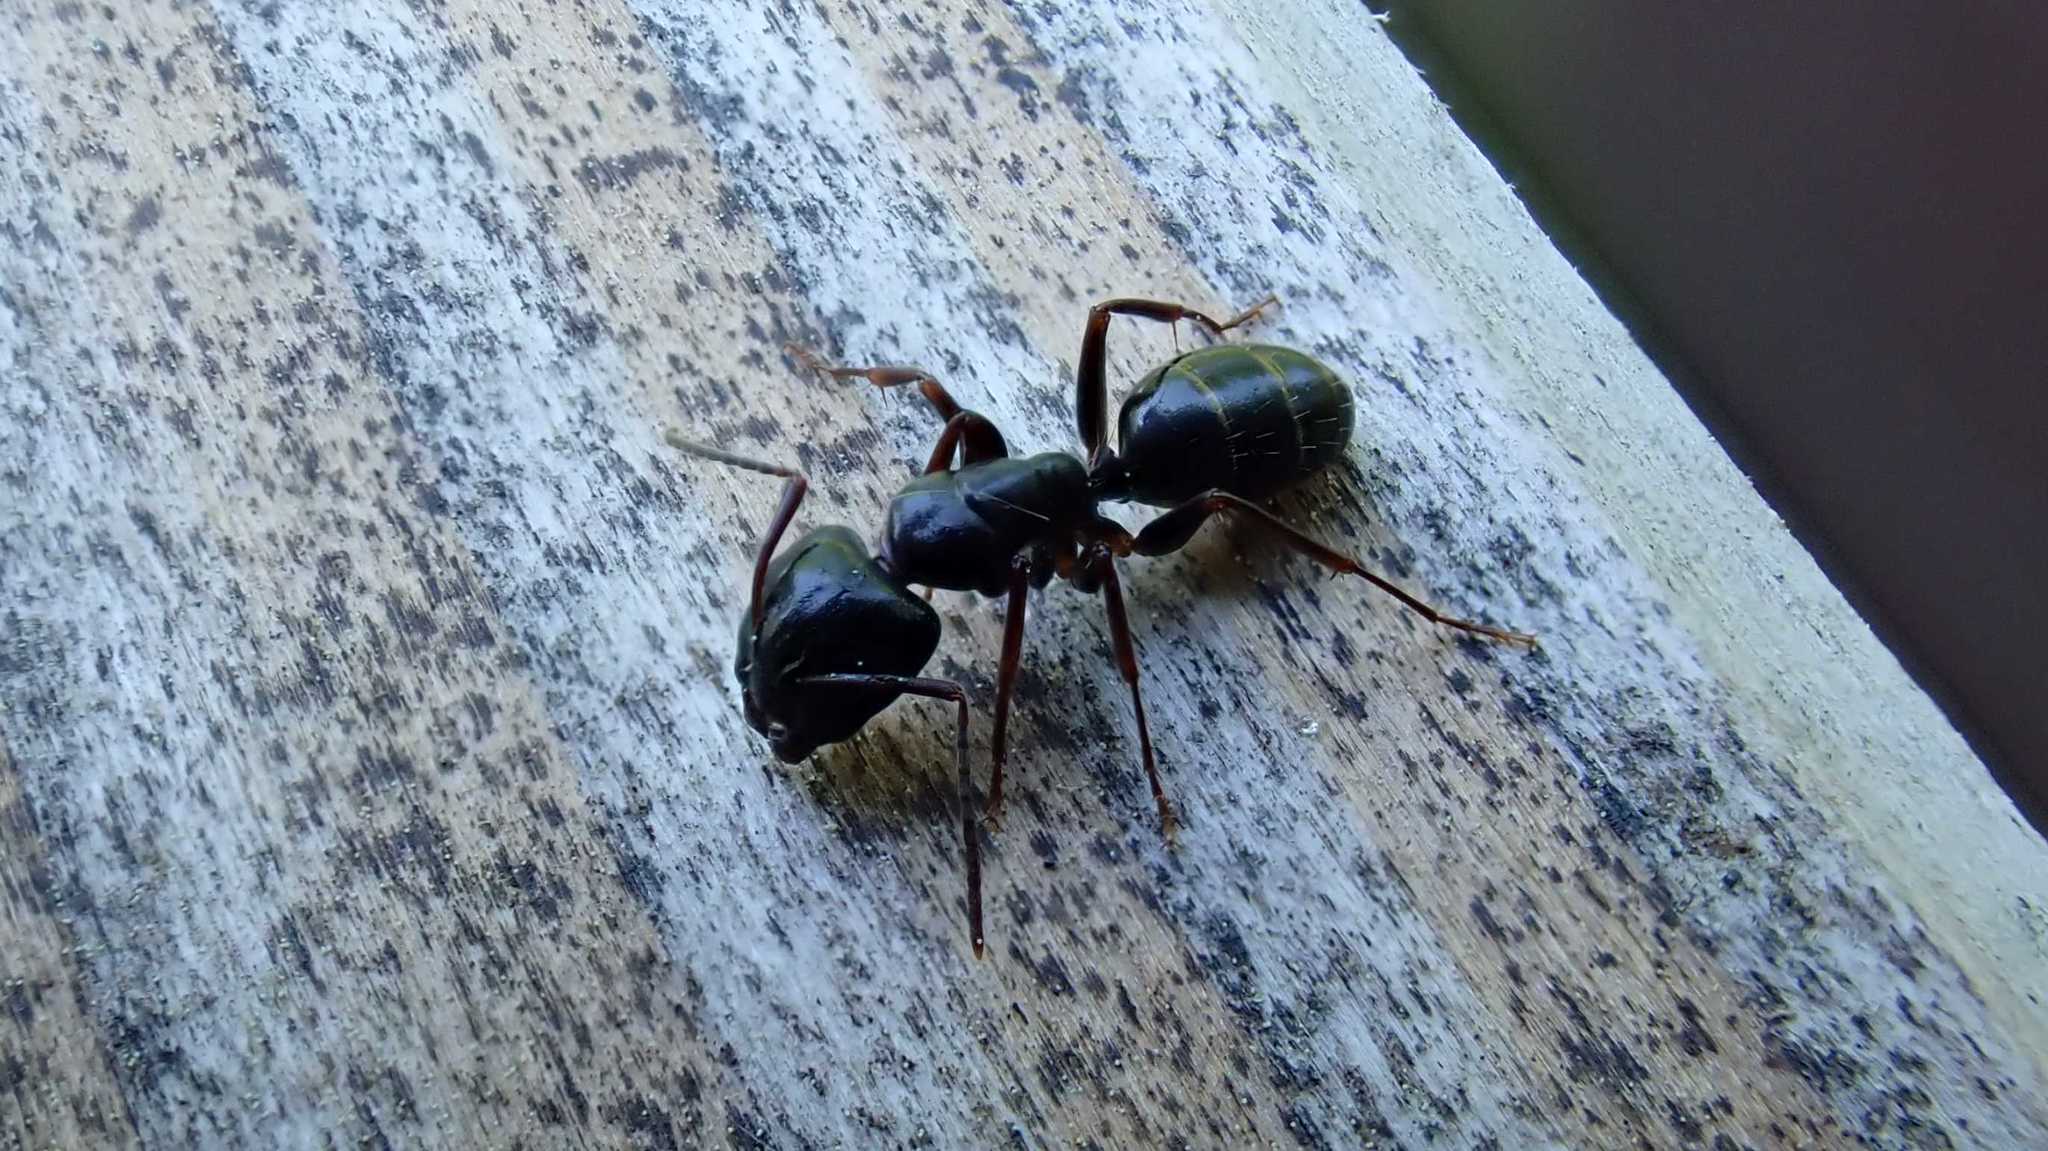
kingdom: Animalia
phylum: Arthropoda
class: Insecta
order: Hymenoptera
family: Formicidae
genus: Camponotus
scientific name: Camponotus fallax
